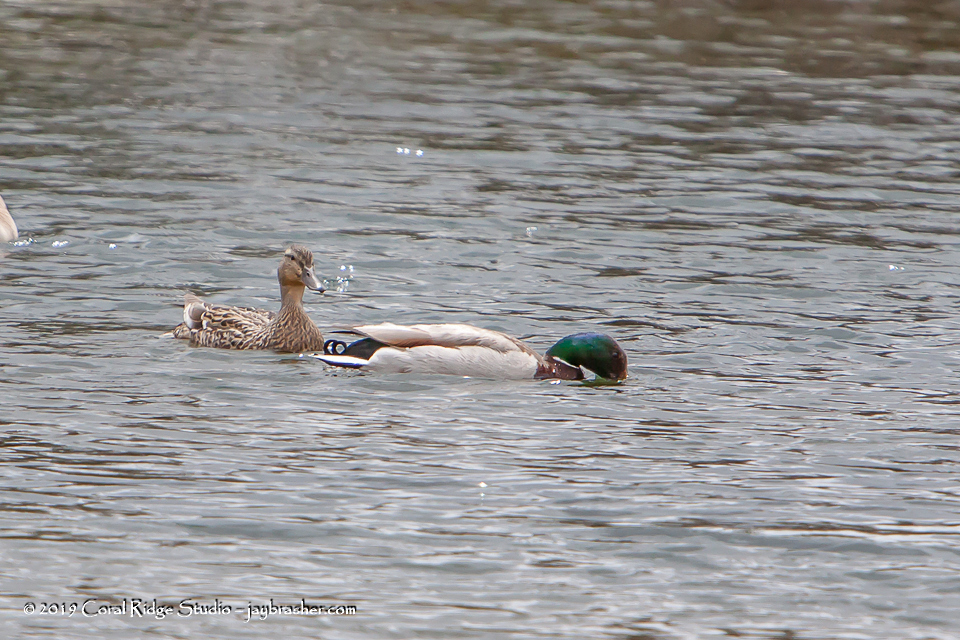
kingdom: Animalia
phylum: Chordata
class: Aves
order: Anseriformes
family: Anatidae
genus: Anas
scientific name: Anas platyrhynchos
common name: Mallard
